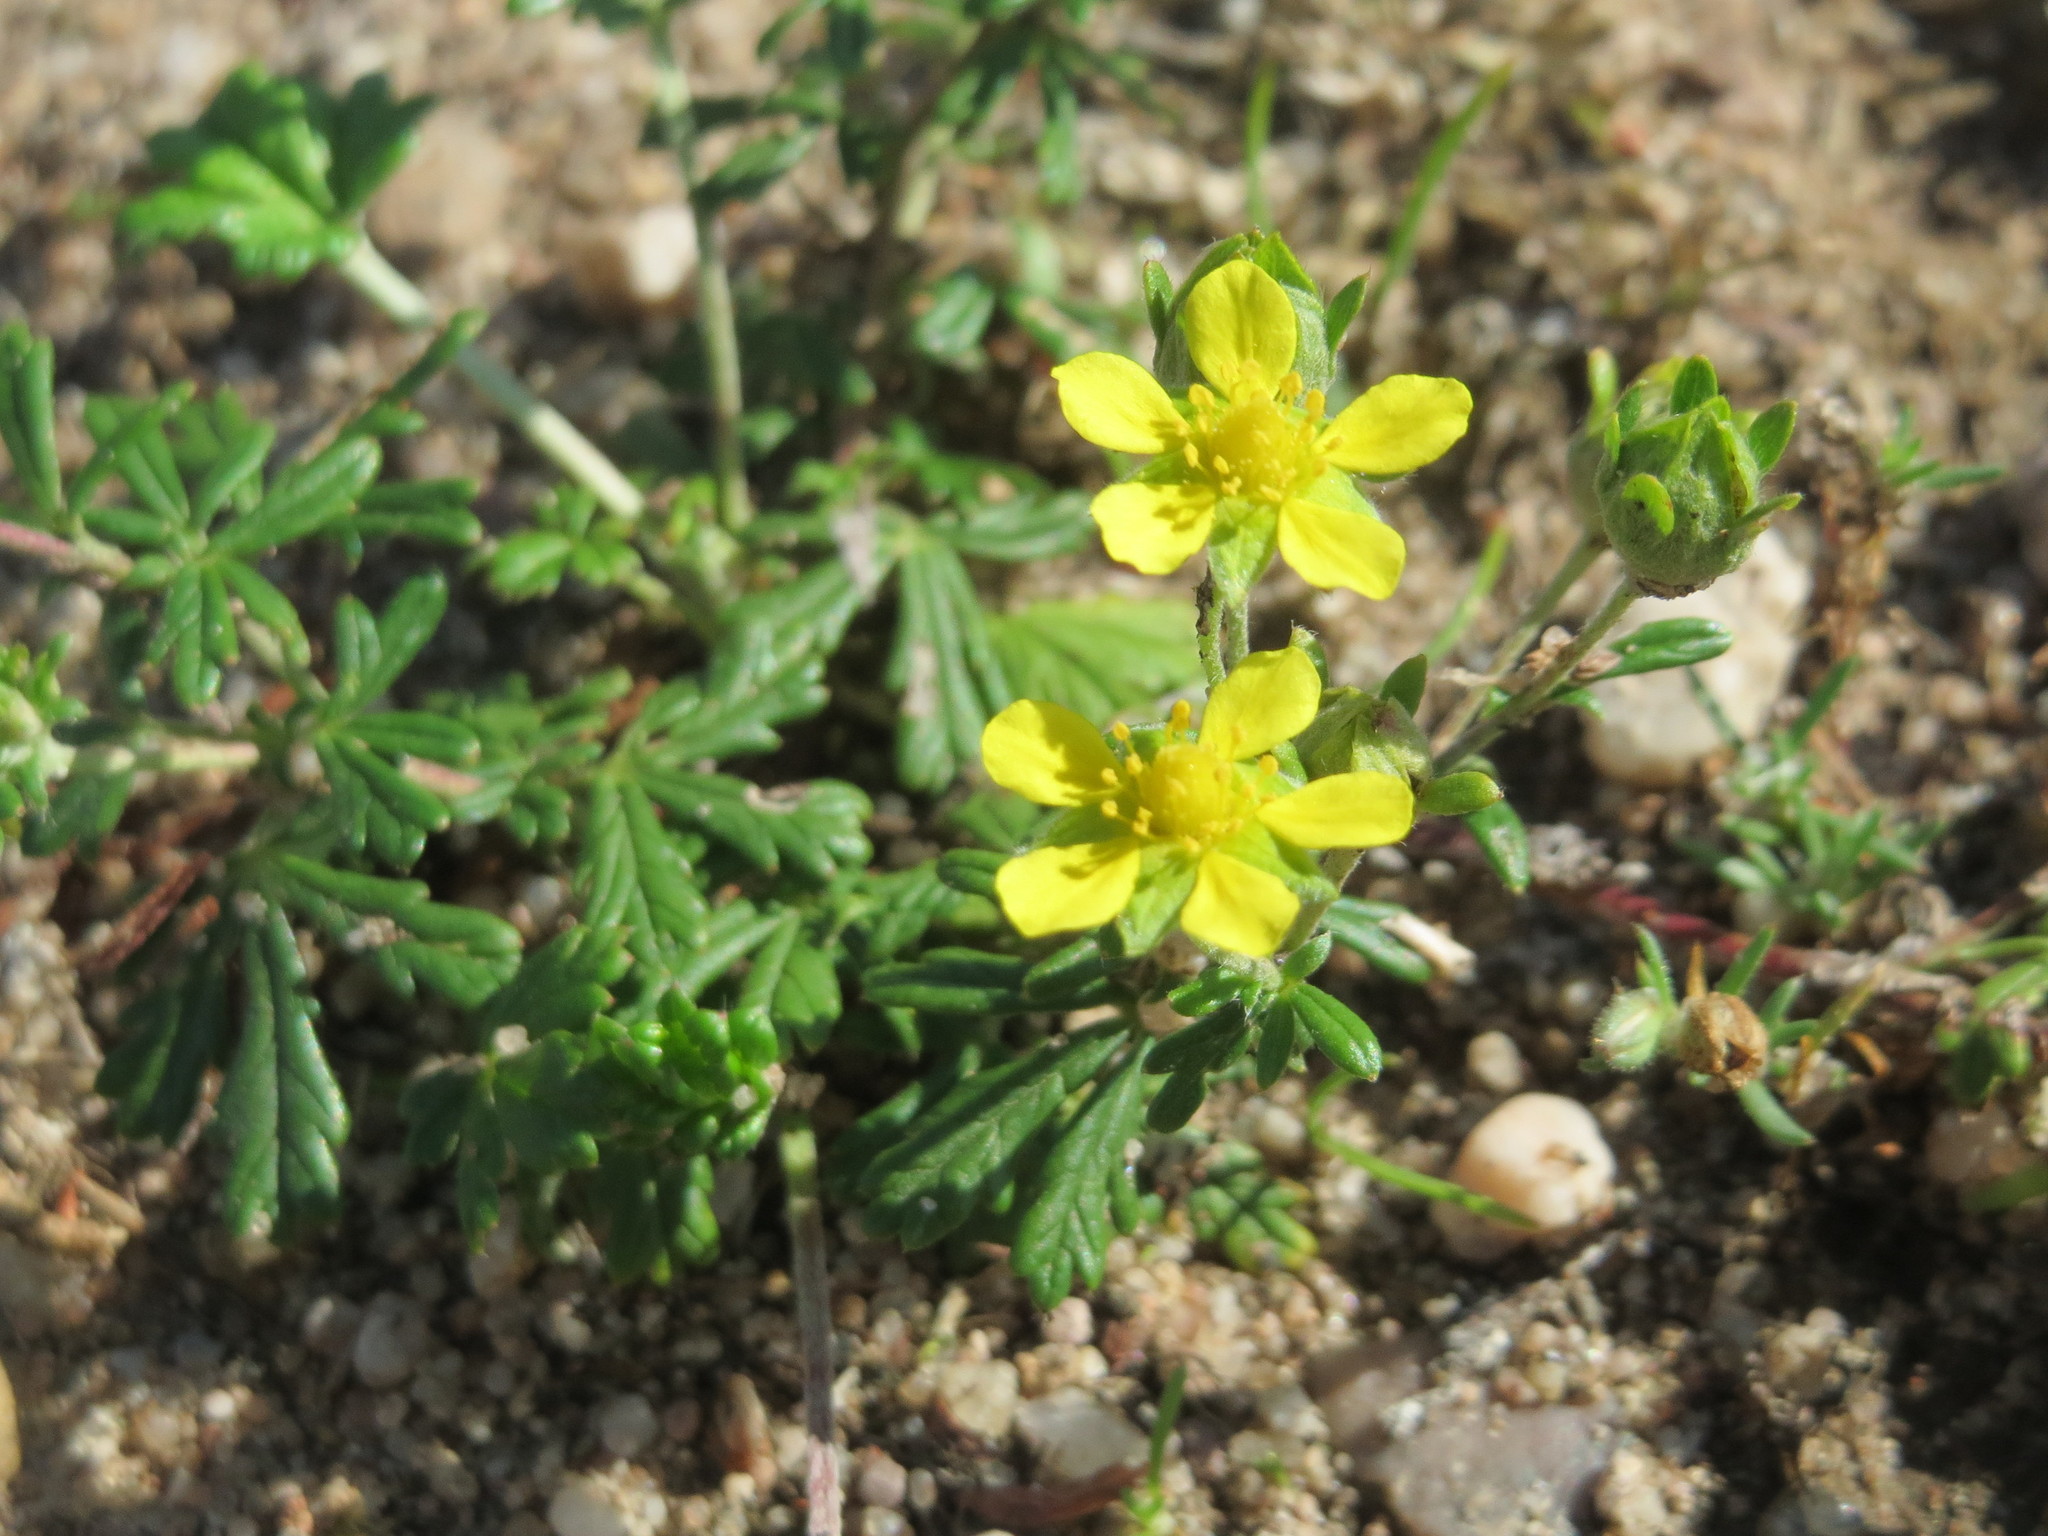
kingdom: Plantae
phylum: Tracheophyta
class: Magnoliopsida
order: Rosales
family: Rosaceae
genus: Potentilla
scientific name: Potentilla argentea
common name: Hoary cinquefoil
